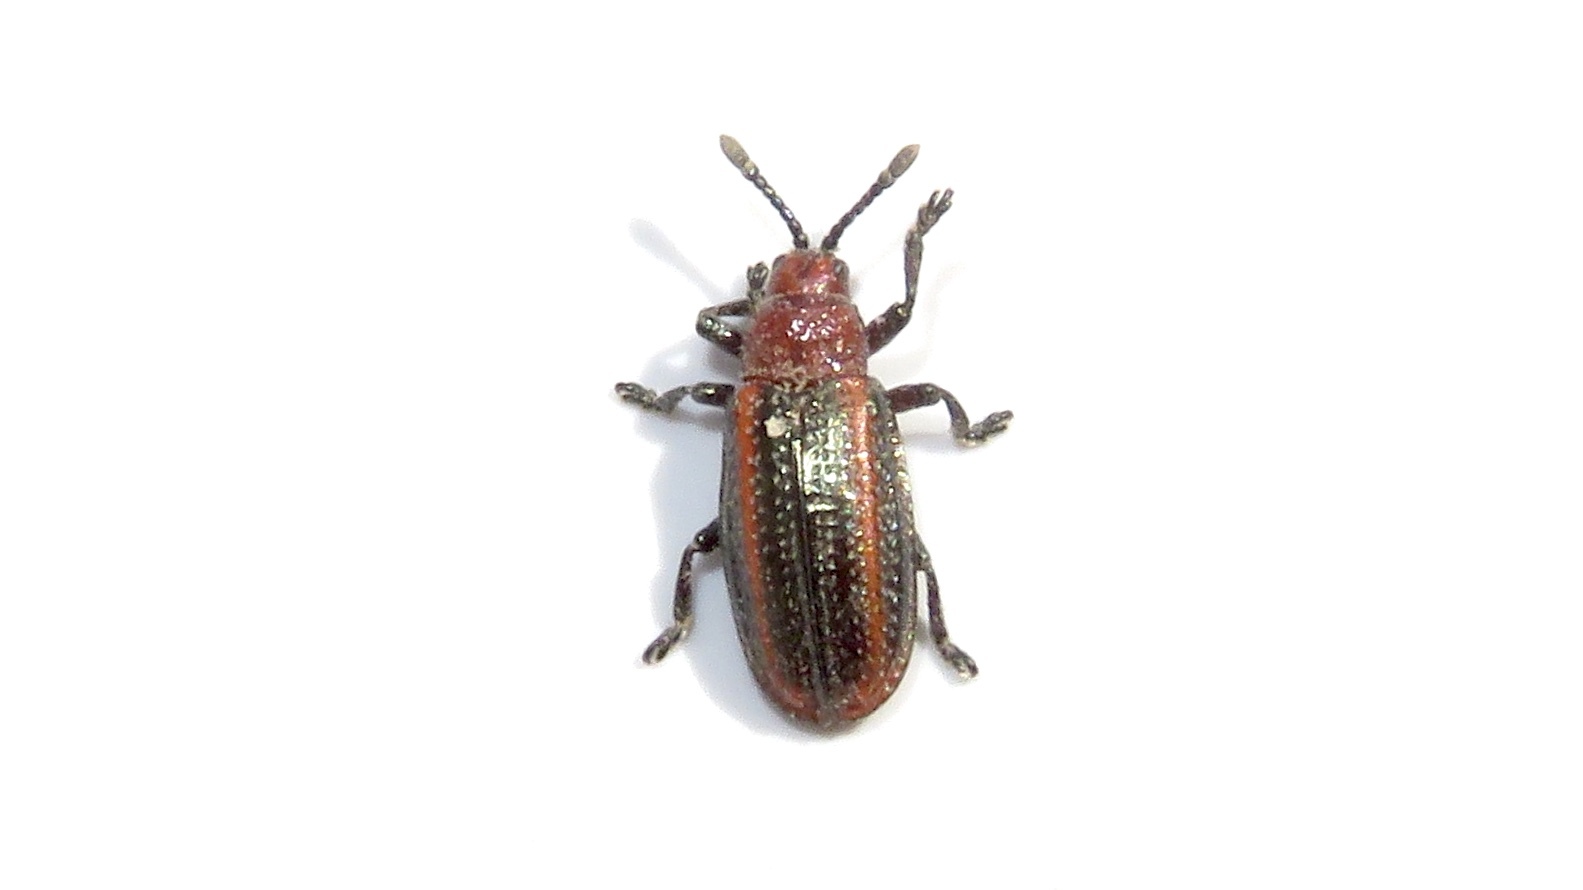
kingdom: Animalia
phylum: Arthropoda
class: Insecta
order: Coleoptera
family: Chrysomelidae
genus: Microrhopala
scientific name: Microrhopala vittata
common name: Goldenrod leaf miner beetle
